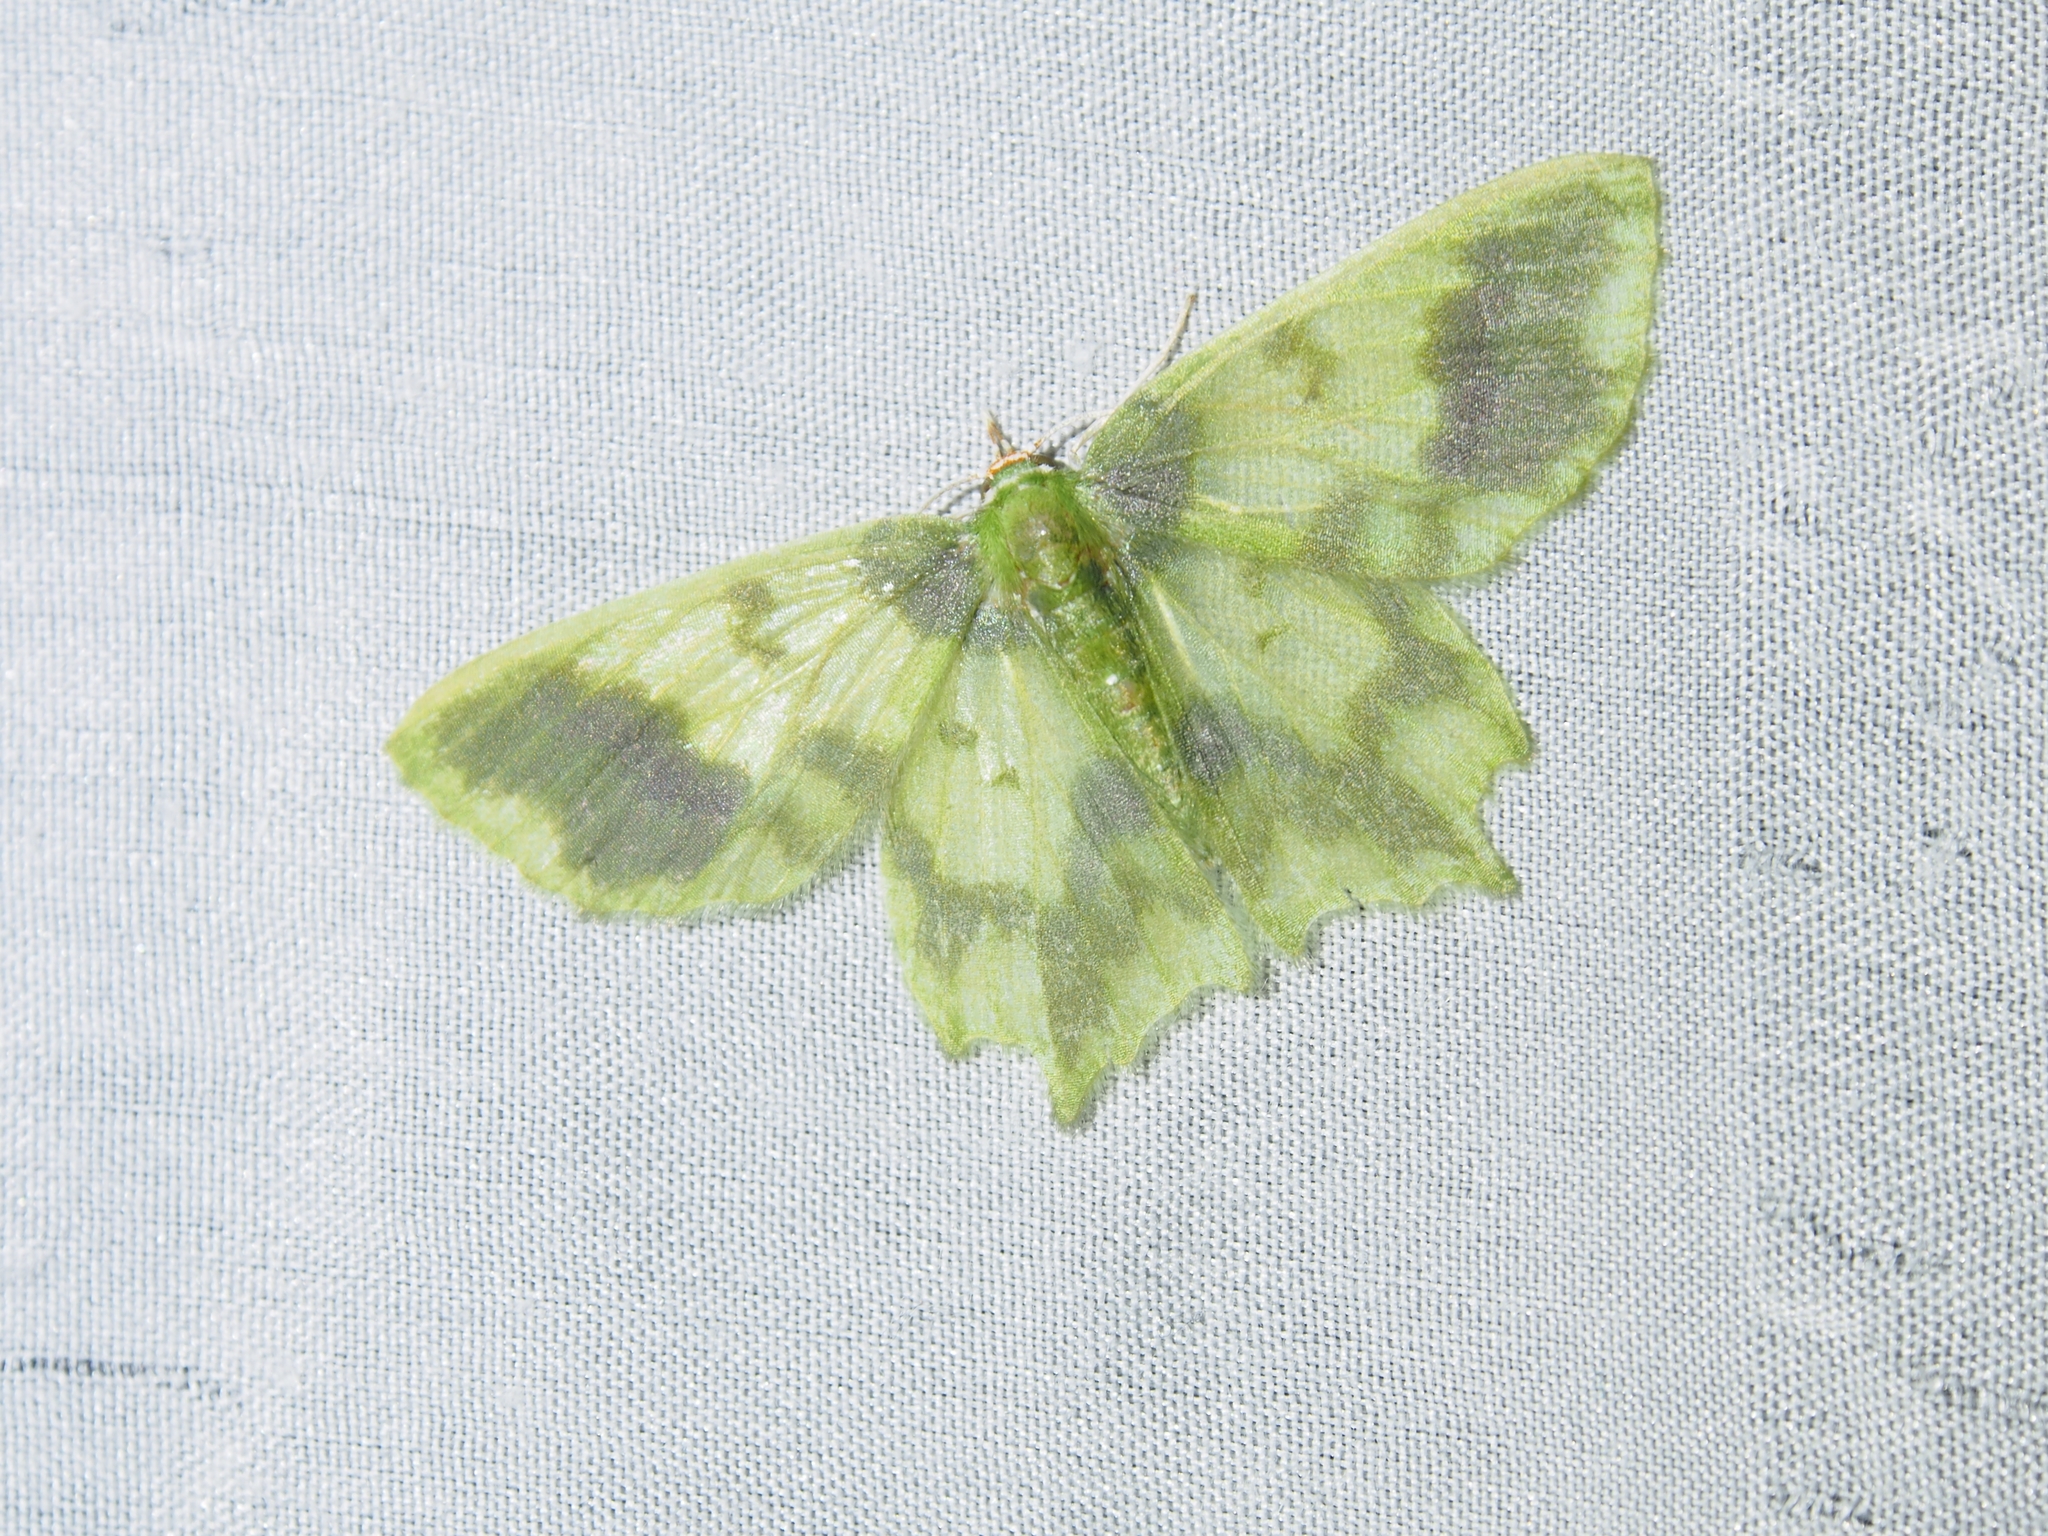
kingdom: Animalia
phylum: Arthropoda
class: Insecta
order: Lepidoptera
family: Geometridae
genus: Cathydata
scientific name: Cathydata batina
